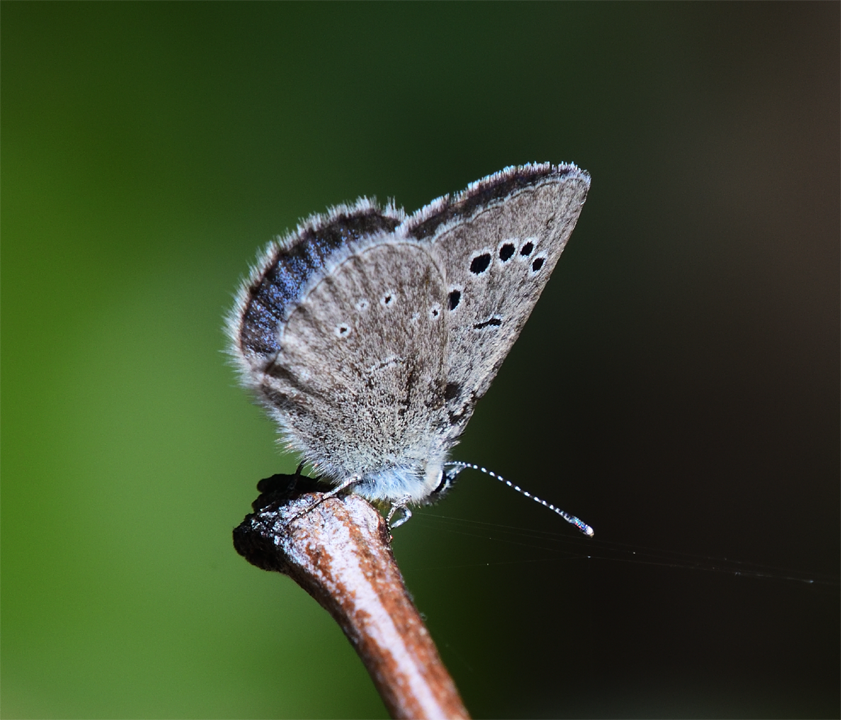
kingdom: Animalia
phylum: Arthropoda
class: Insecta
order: Lepidoptera
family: Lycaenidae
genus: Glaucopsyche
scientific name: Glaucopsyche lygdamus
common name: Silvery blue
